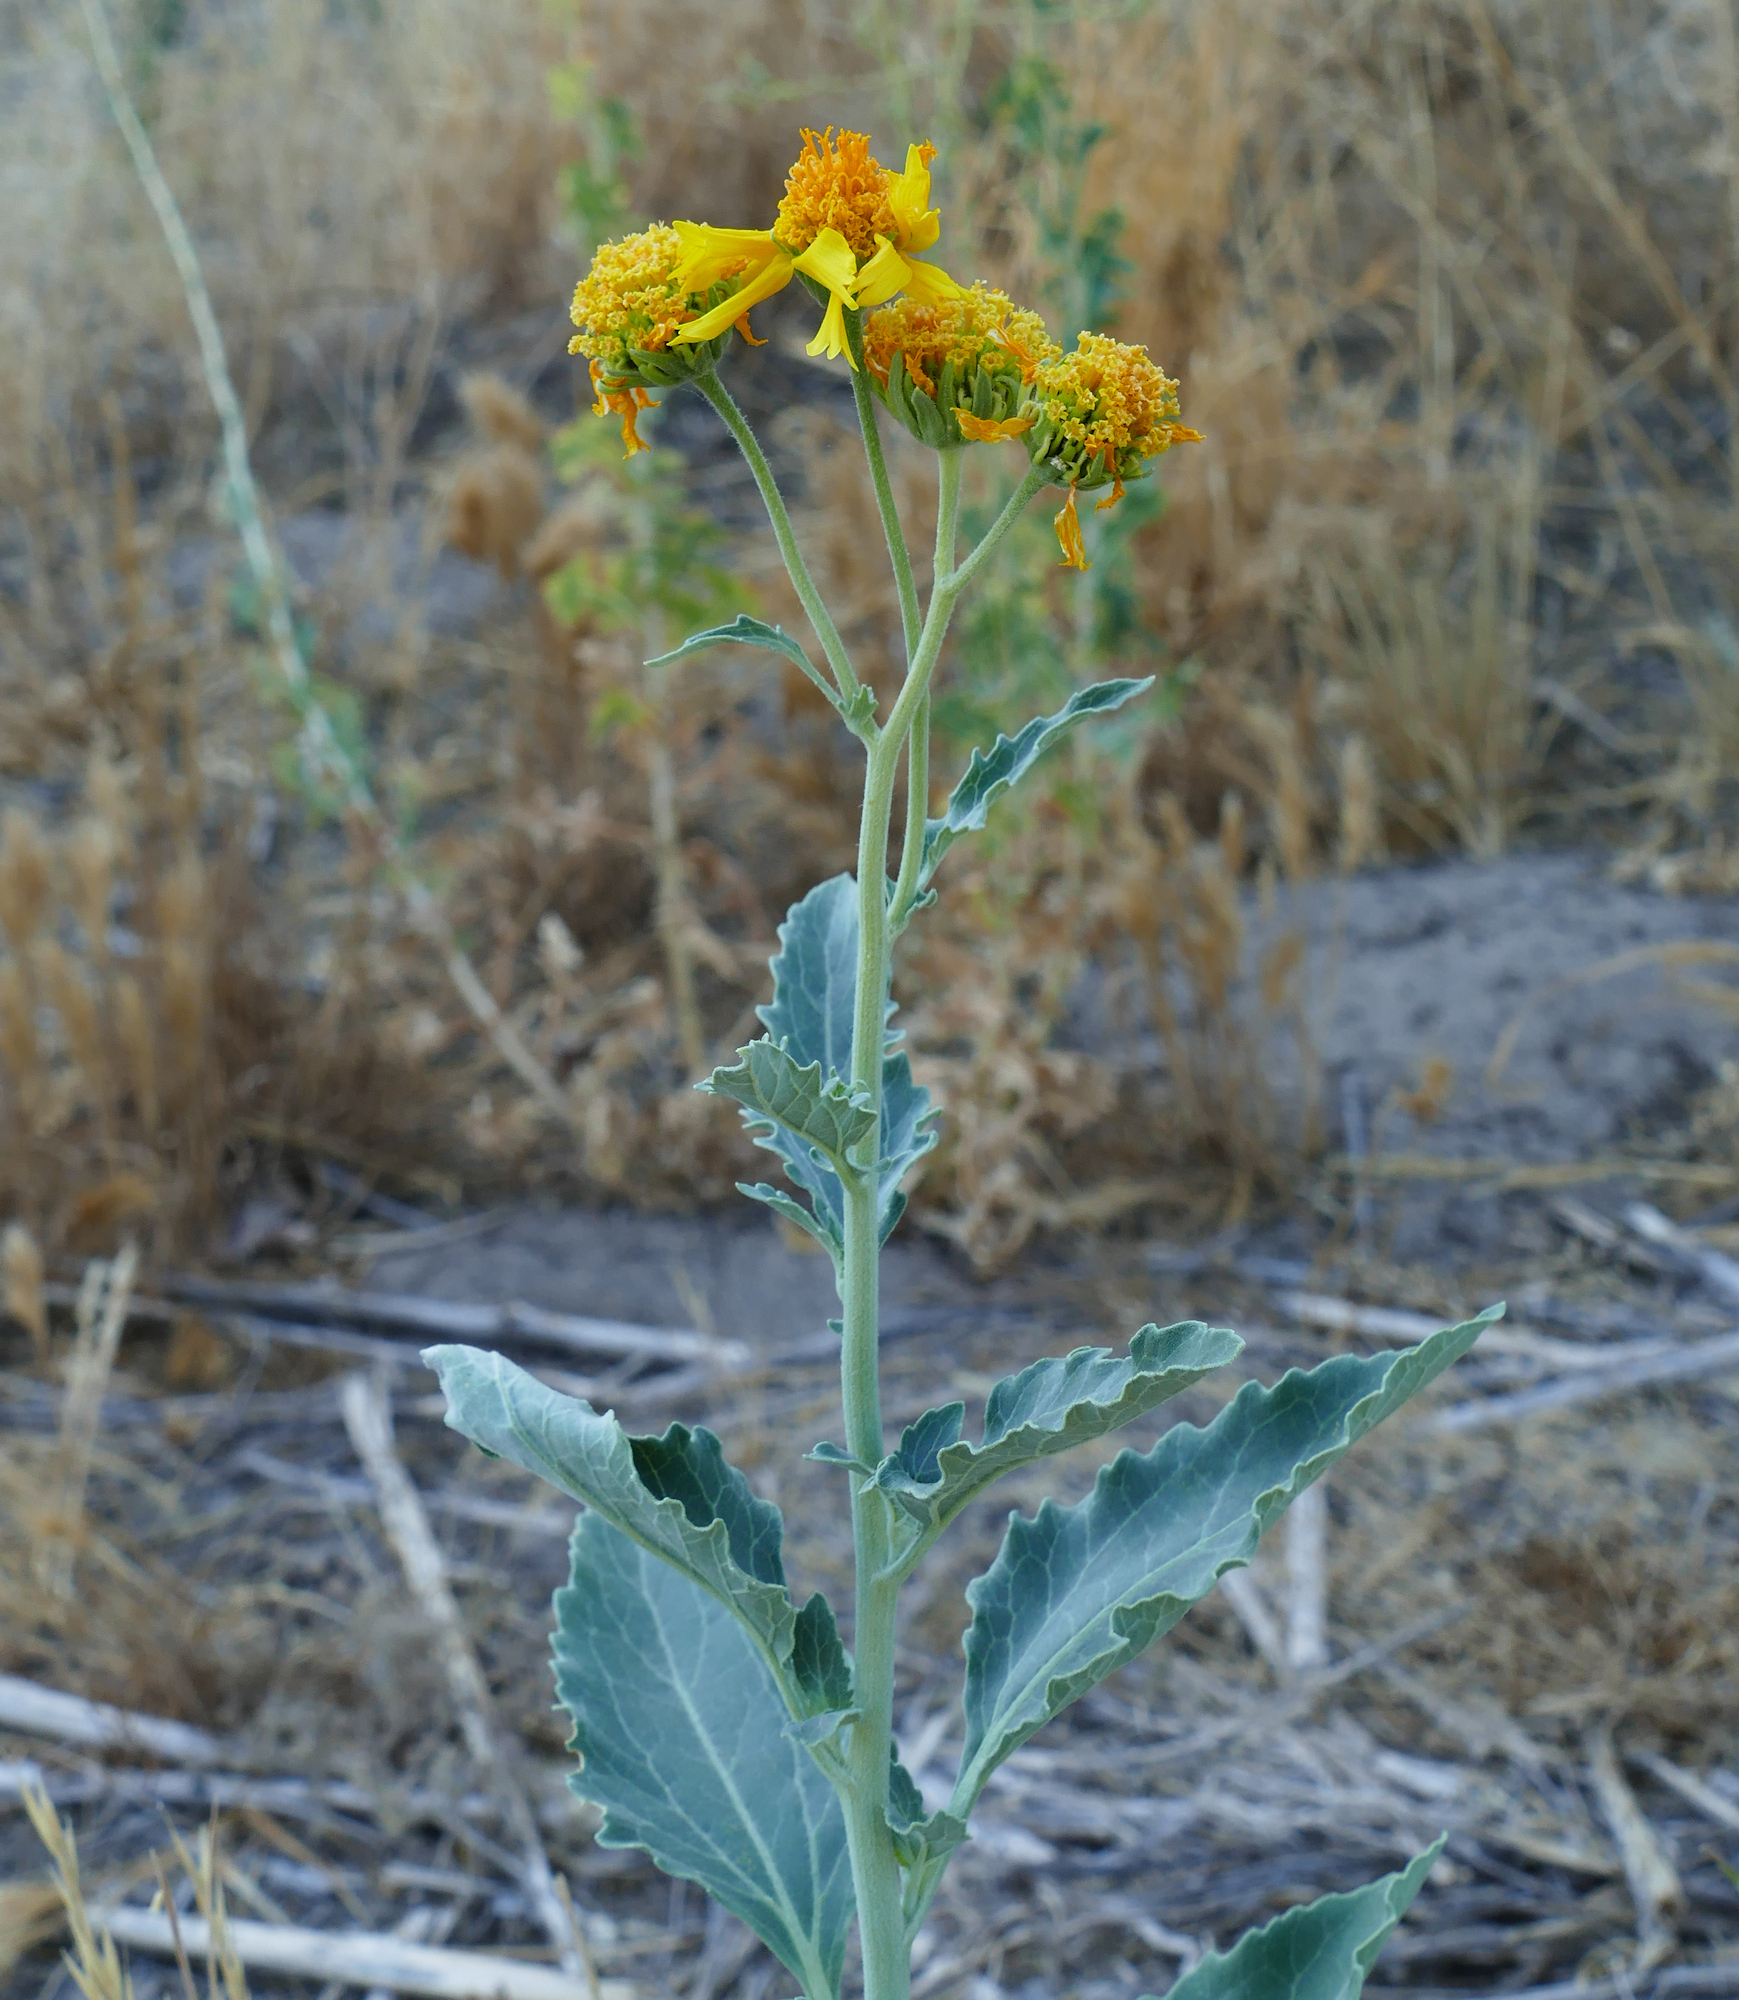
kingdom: Plantae
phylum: Tracheophyta
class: Magnoliopsida
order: Asterales
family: Asteraceae
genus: Verbesina
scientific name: Verbesina encelioides
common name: Golden crownbeard
